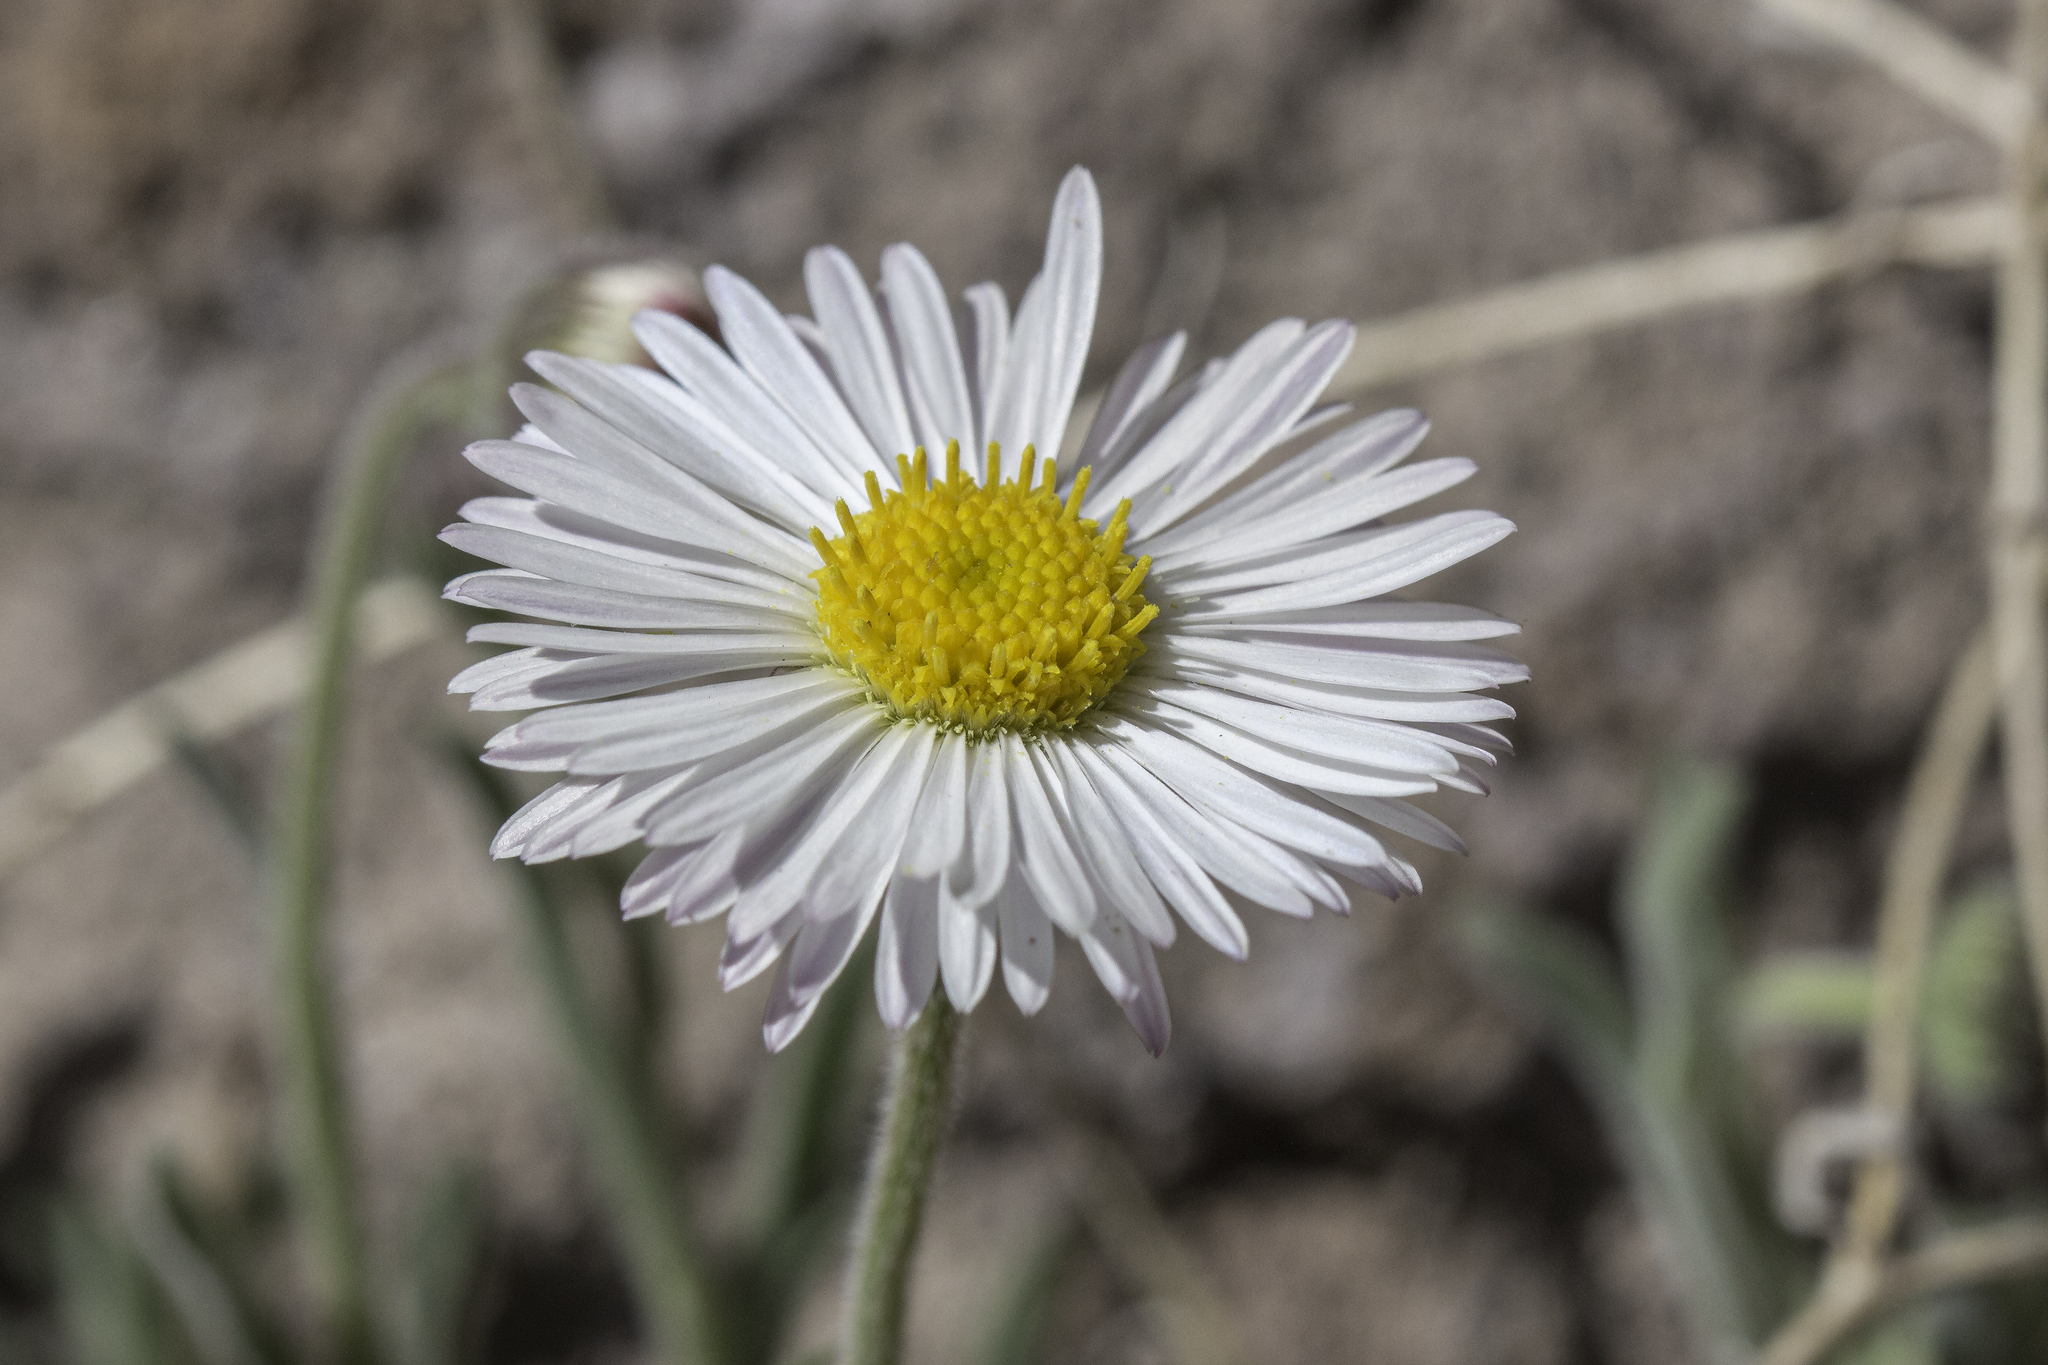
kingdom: Plantae
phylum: Tracheophyta
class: Magnoliopsida
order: Asterales
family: Asteraceae
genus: Erigeron
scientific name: Erigeron flagellaris
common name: Running fleabane
